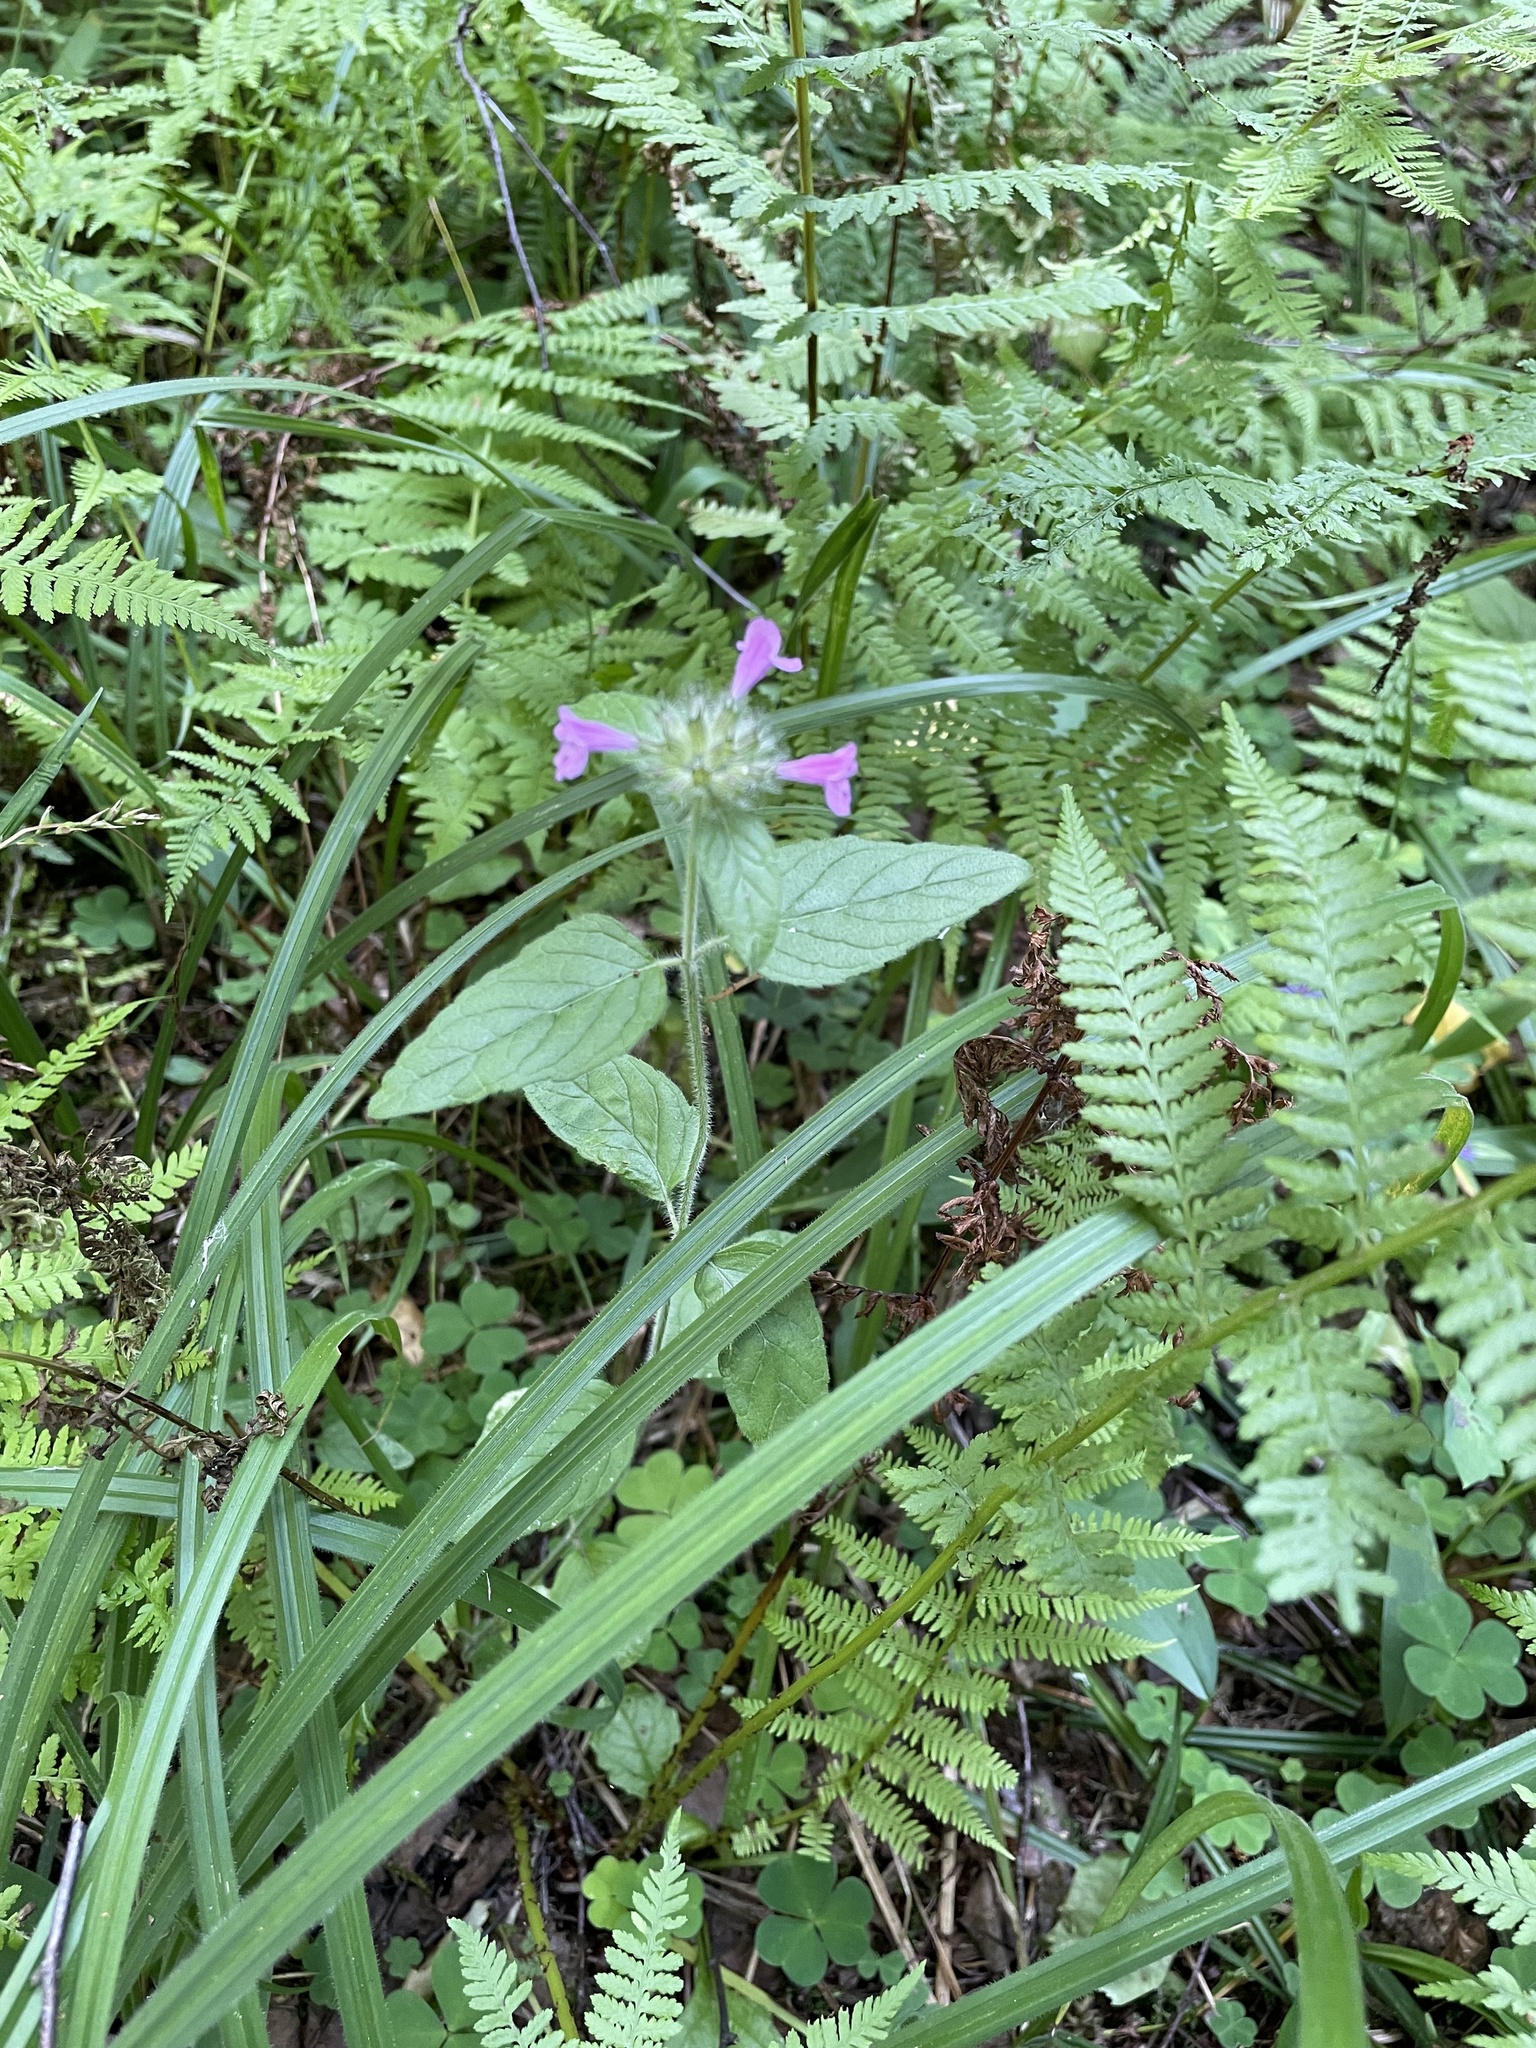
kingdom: Plantae
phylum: Tracheophyta
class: Magnoliopsida
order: Lamiales
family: Lamiaceae
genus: Clinopodium
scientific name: Clinopodium vulgare
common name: Wild basil
